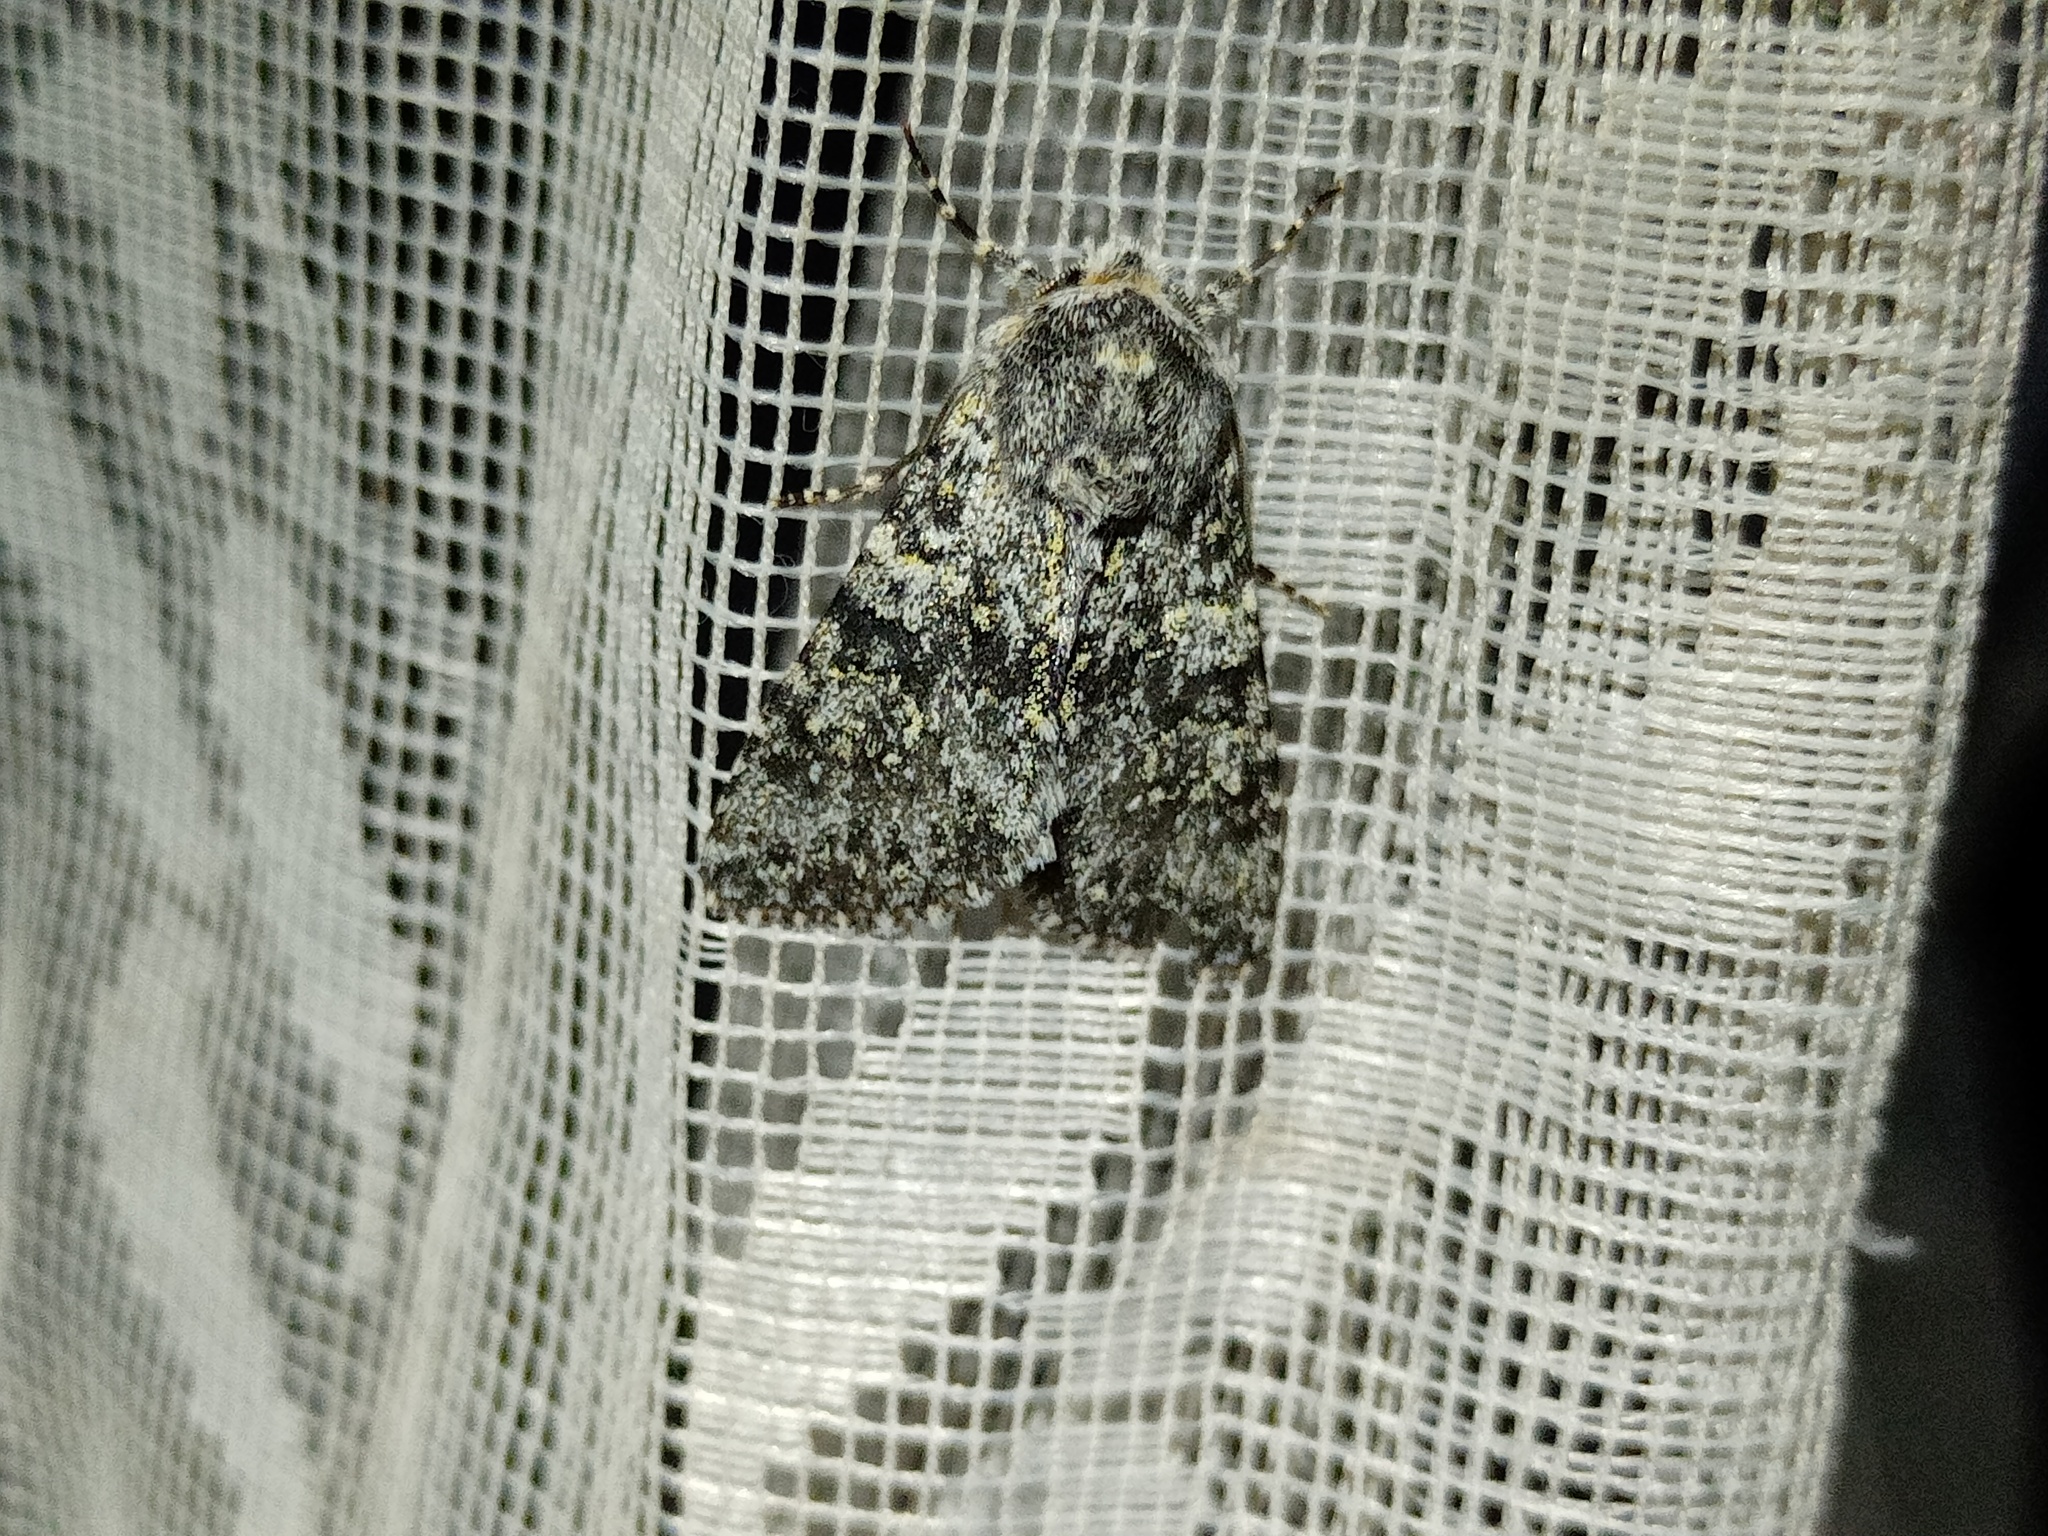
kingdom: Animalia
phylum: Arthropoda
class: Insecta
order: Lepidoptera
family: Noctuidae
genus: Polymixis
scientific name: Polymixis xanthomista
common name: Black-banded
